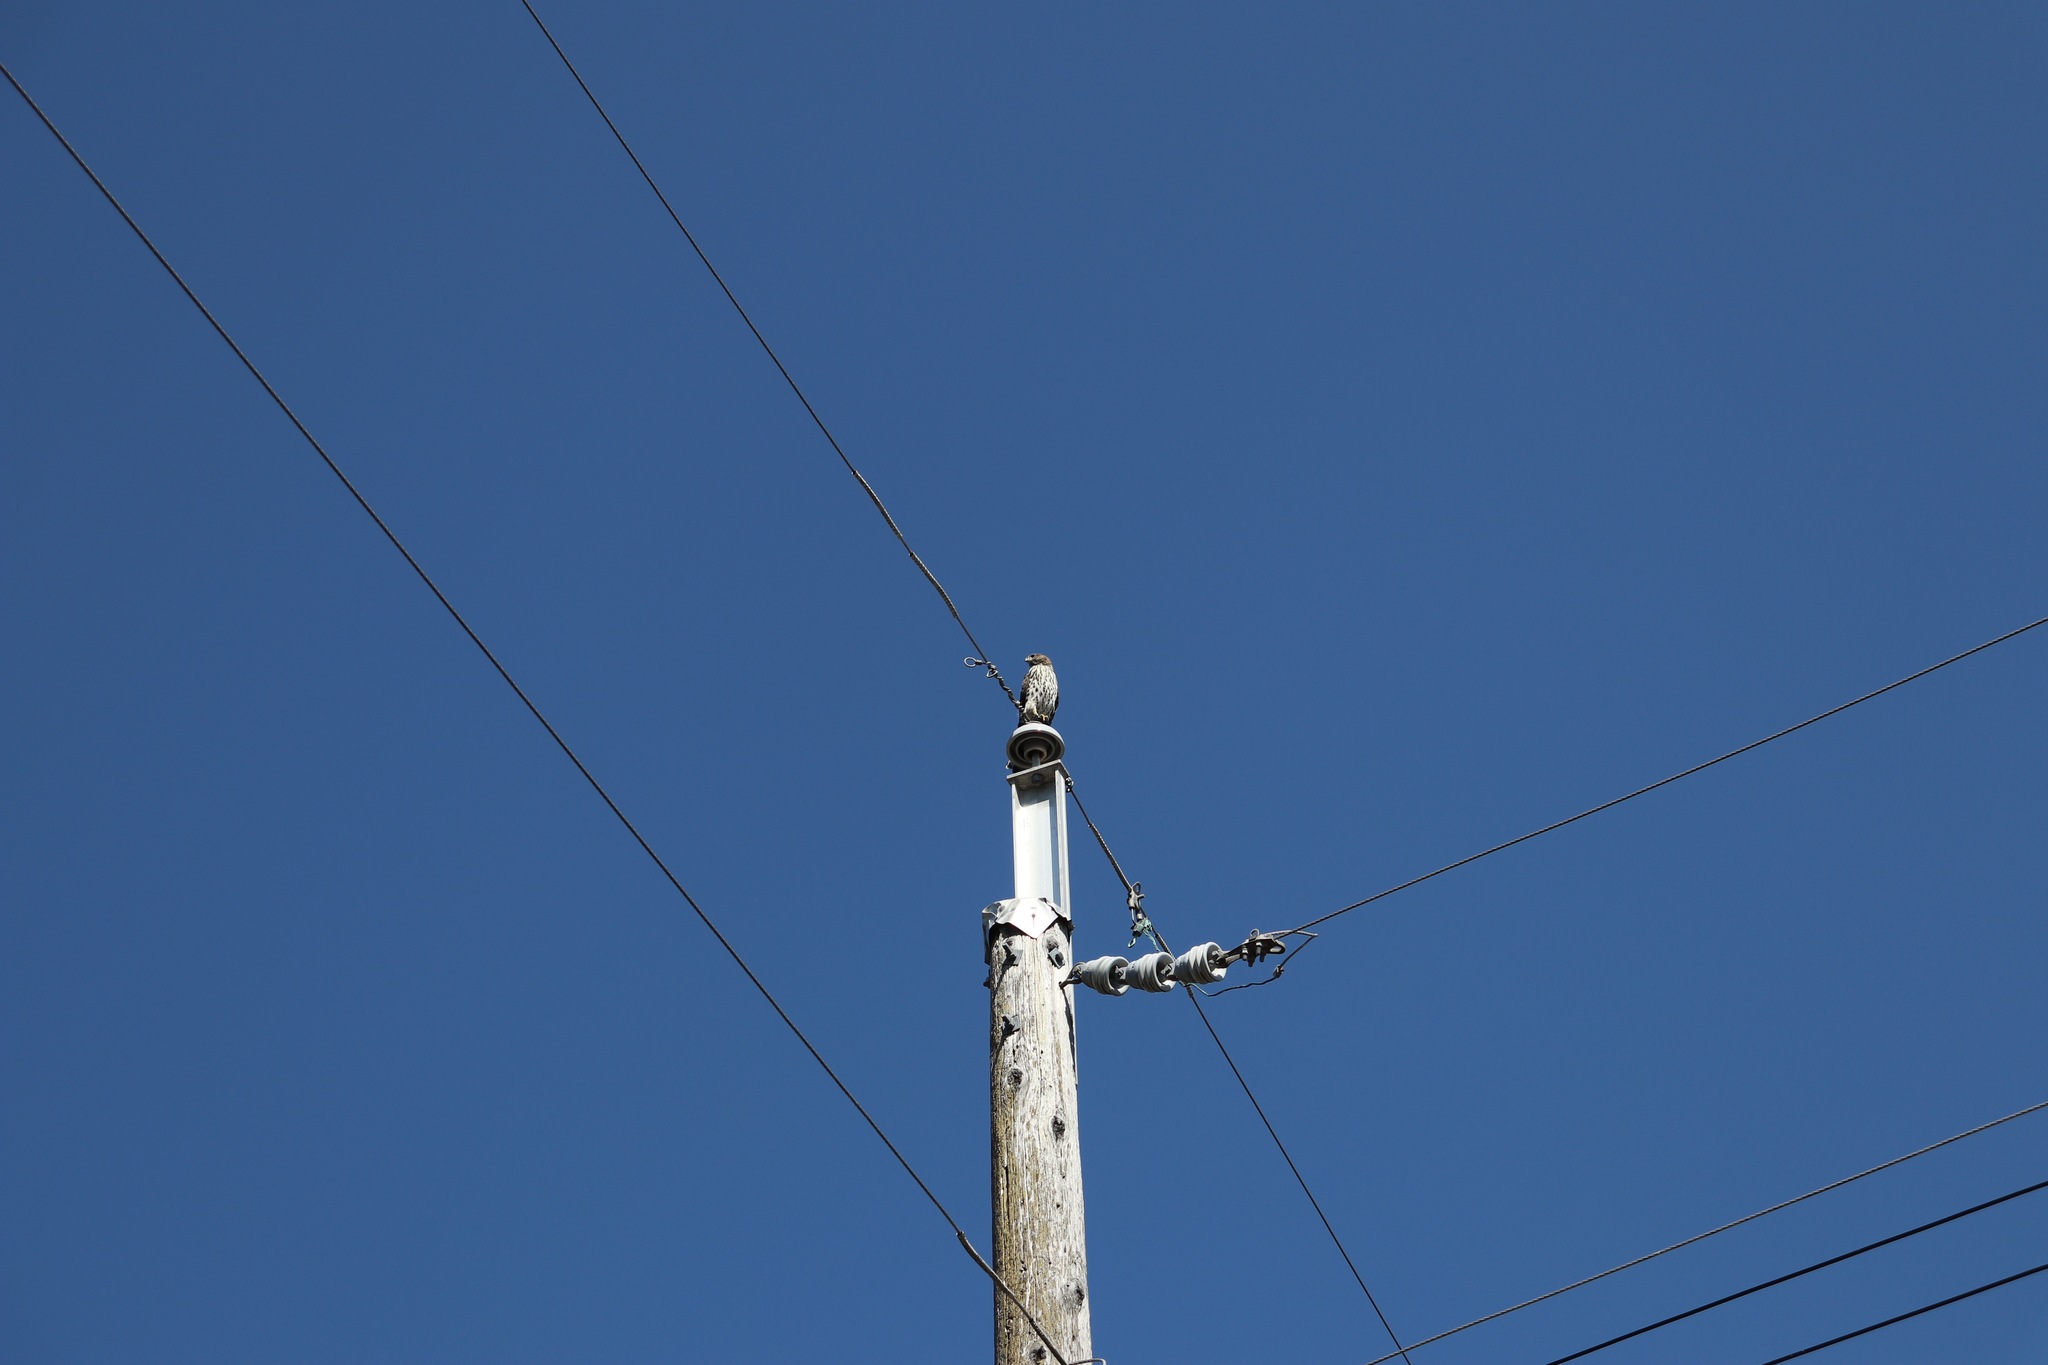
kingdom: Animalia
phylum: Chordata
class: Aves
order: Accipitriformes
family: Accipitridae
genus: Accipiter
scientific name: Accipiter cooperii
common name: Cooper's hawk
